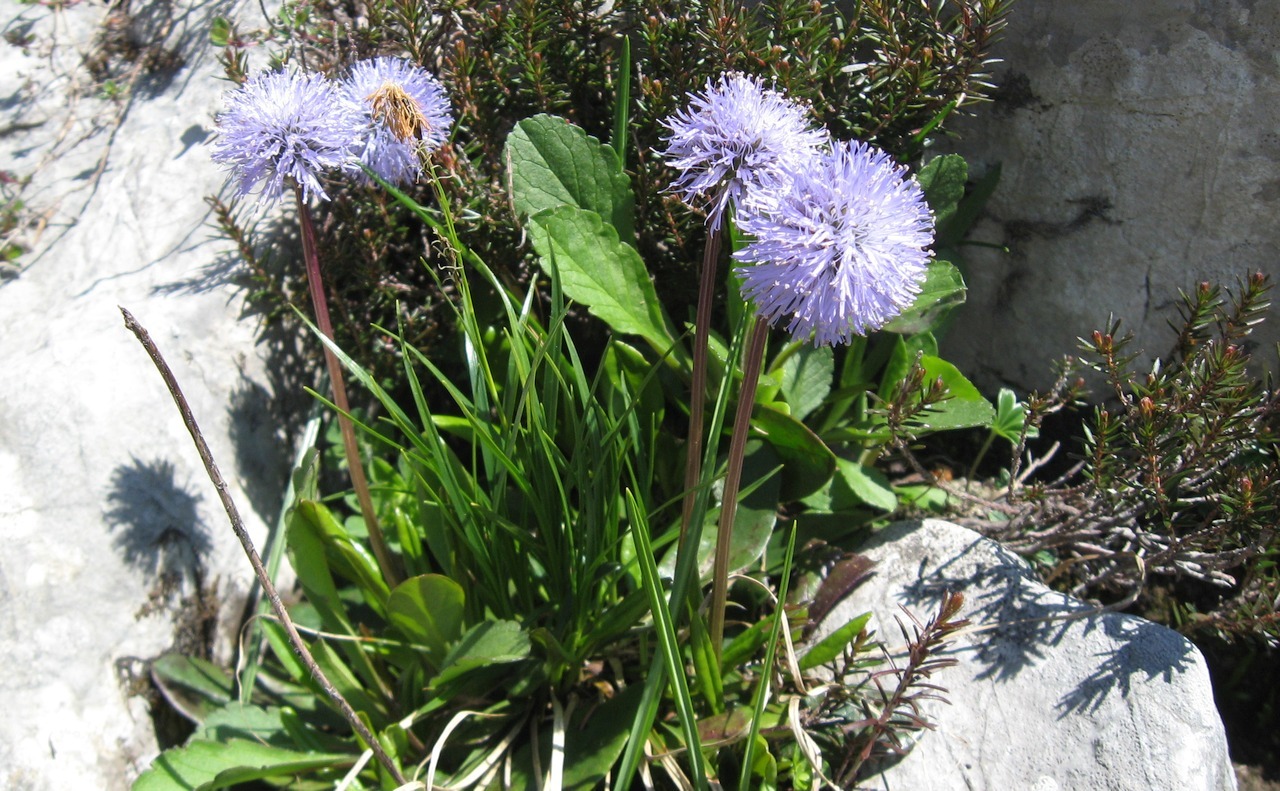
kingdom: Plantae
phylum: Tracheophyta
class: Magnoliopsida
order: Lamiales
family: Plantaginaceae
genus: Globularia
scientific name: Globularia nudicaulis
